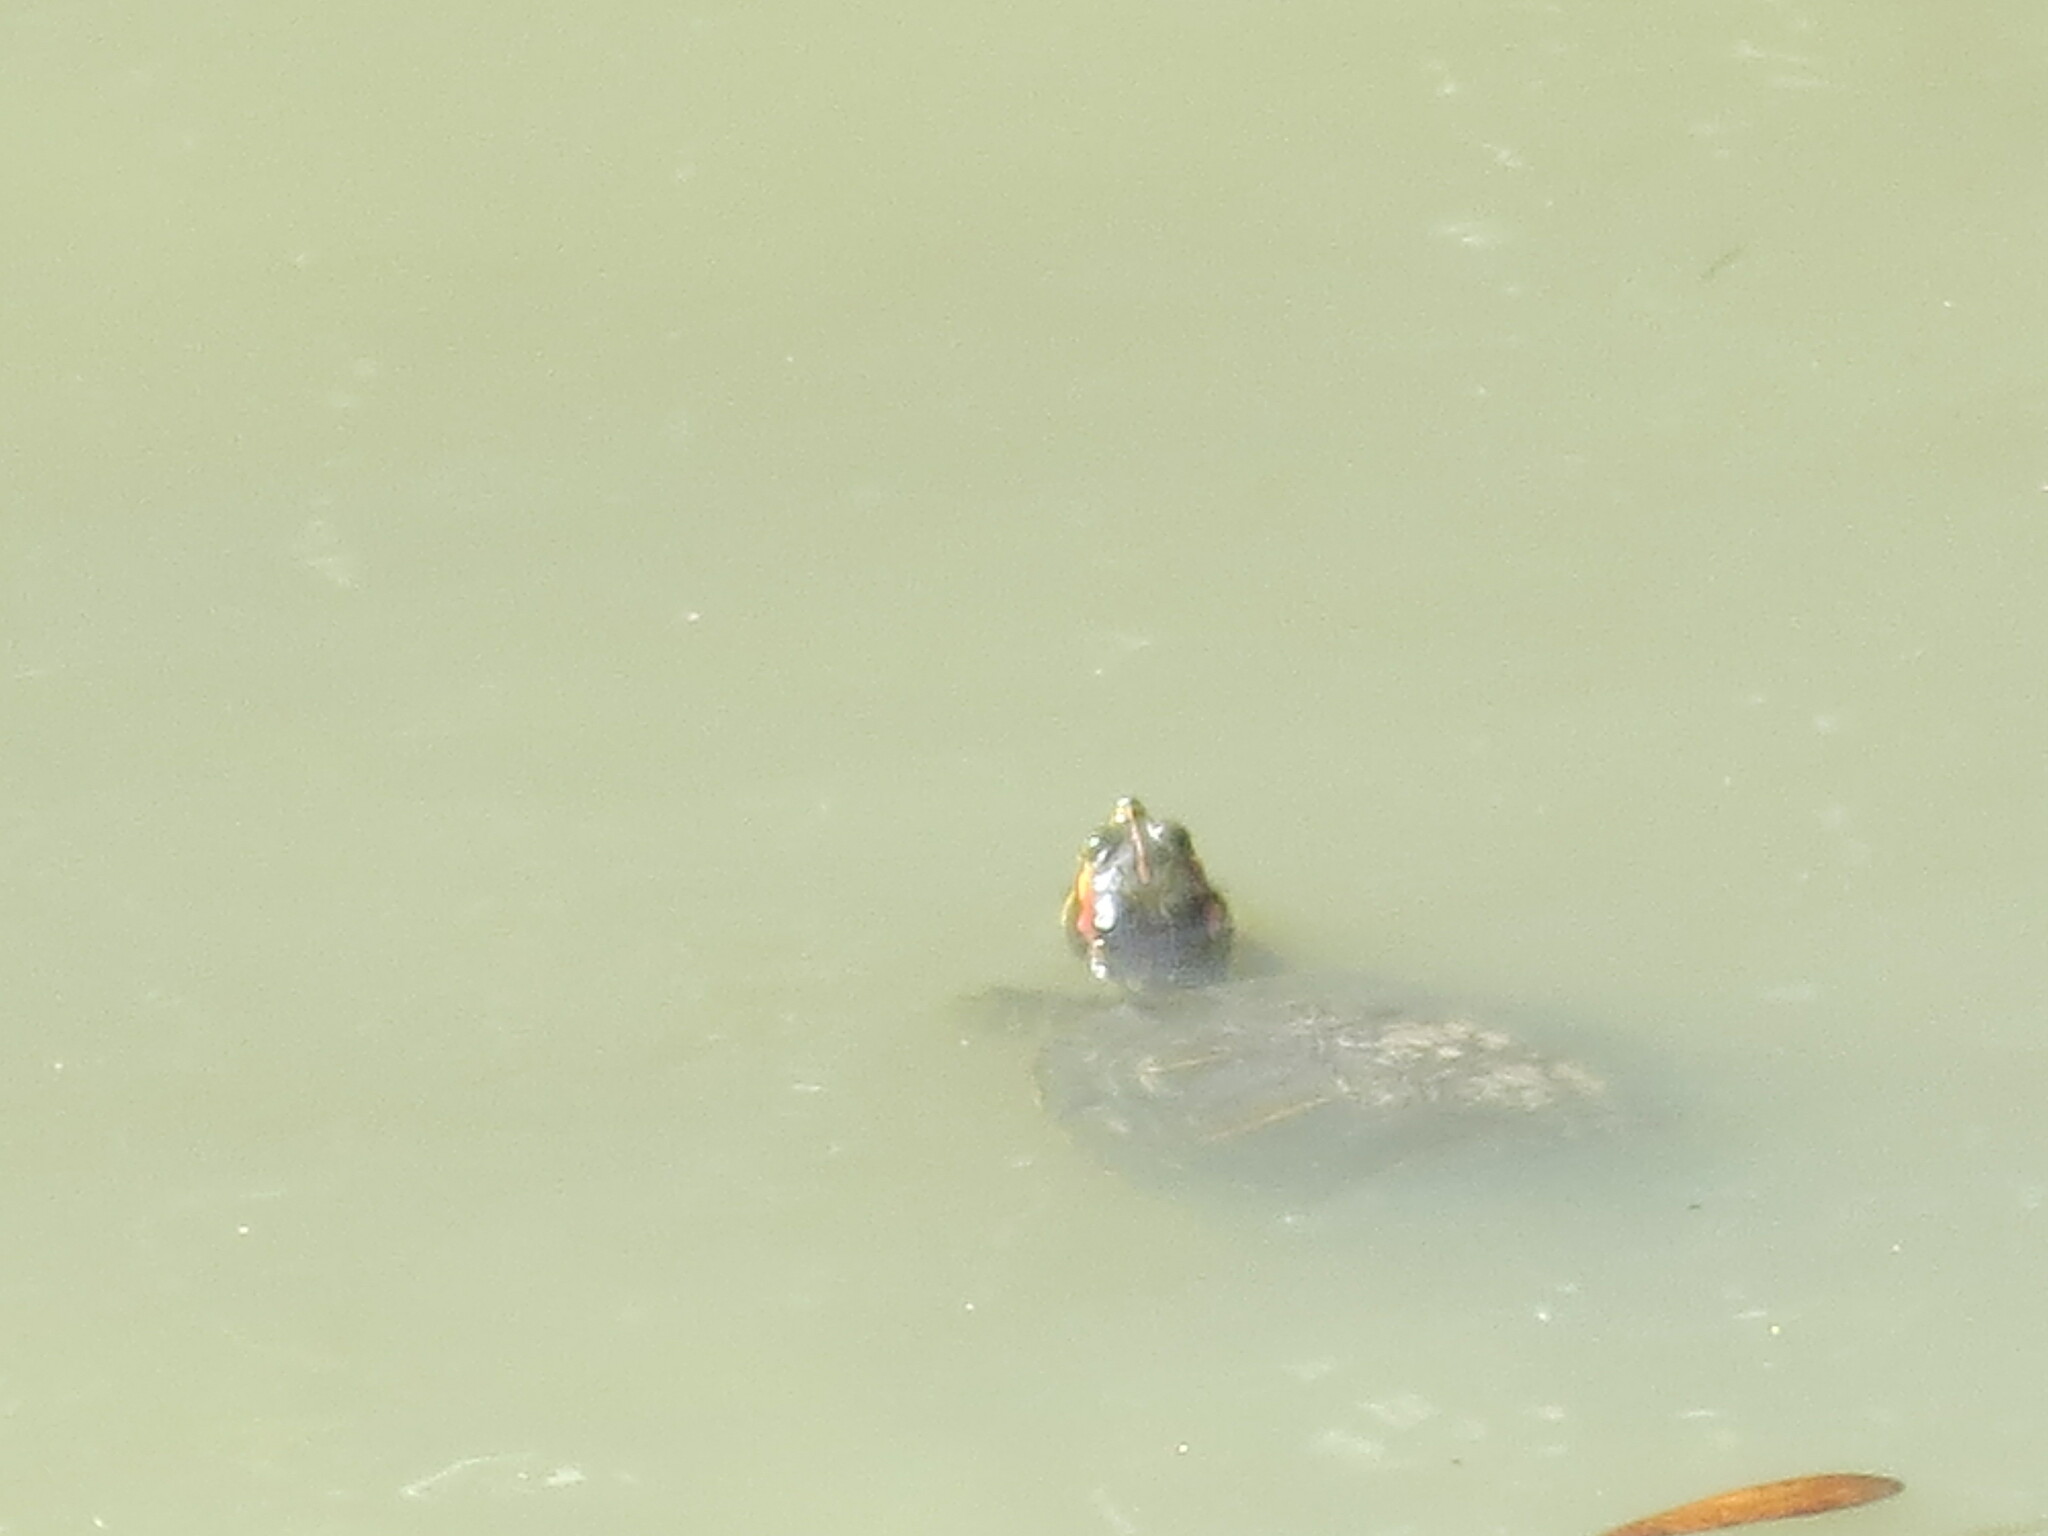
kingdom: Animalia
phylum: Chordata
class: Testudines
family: Emydidae
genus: Trachemys
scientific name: Trachemys scripta
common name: Slider
